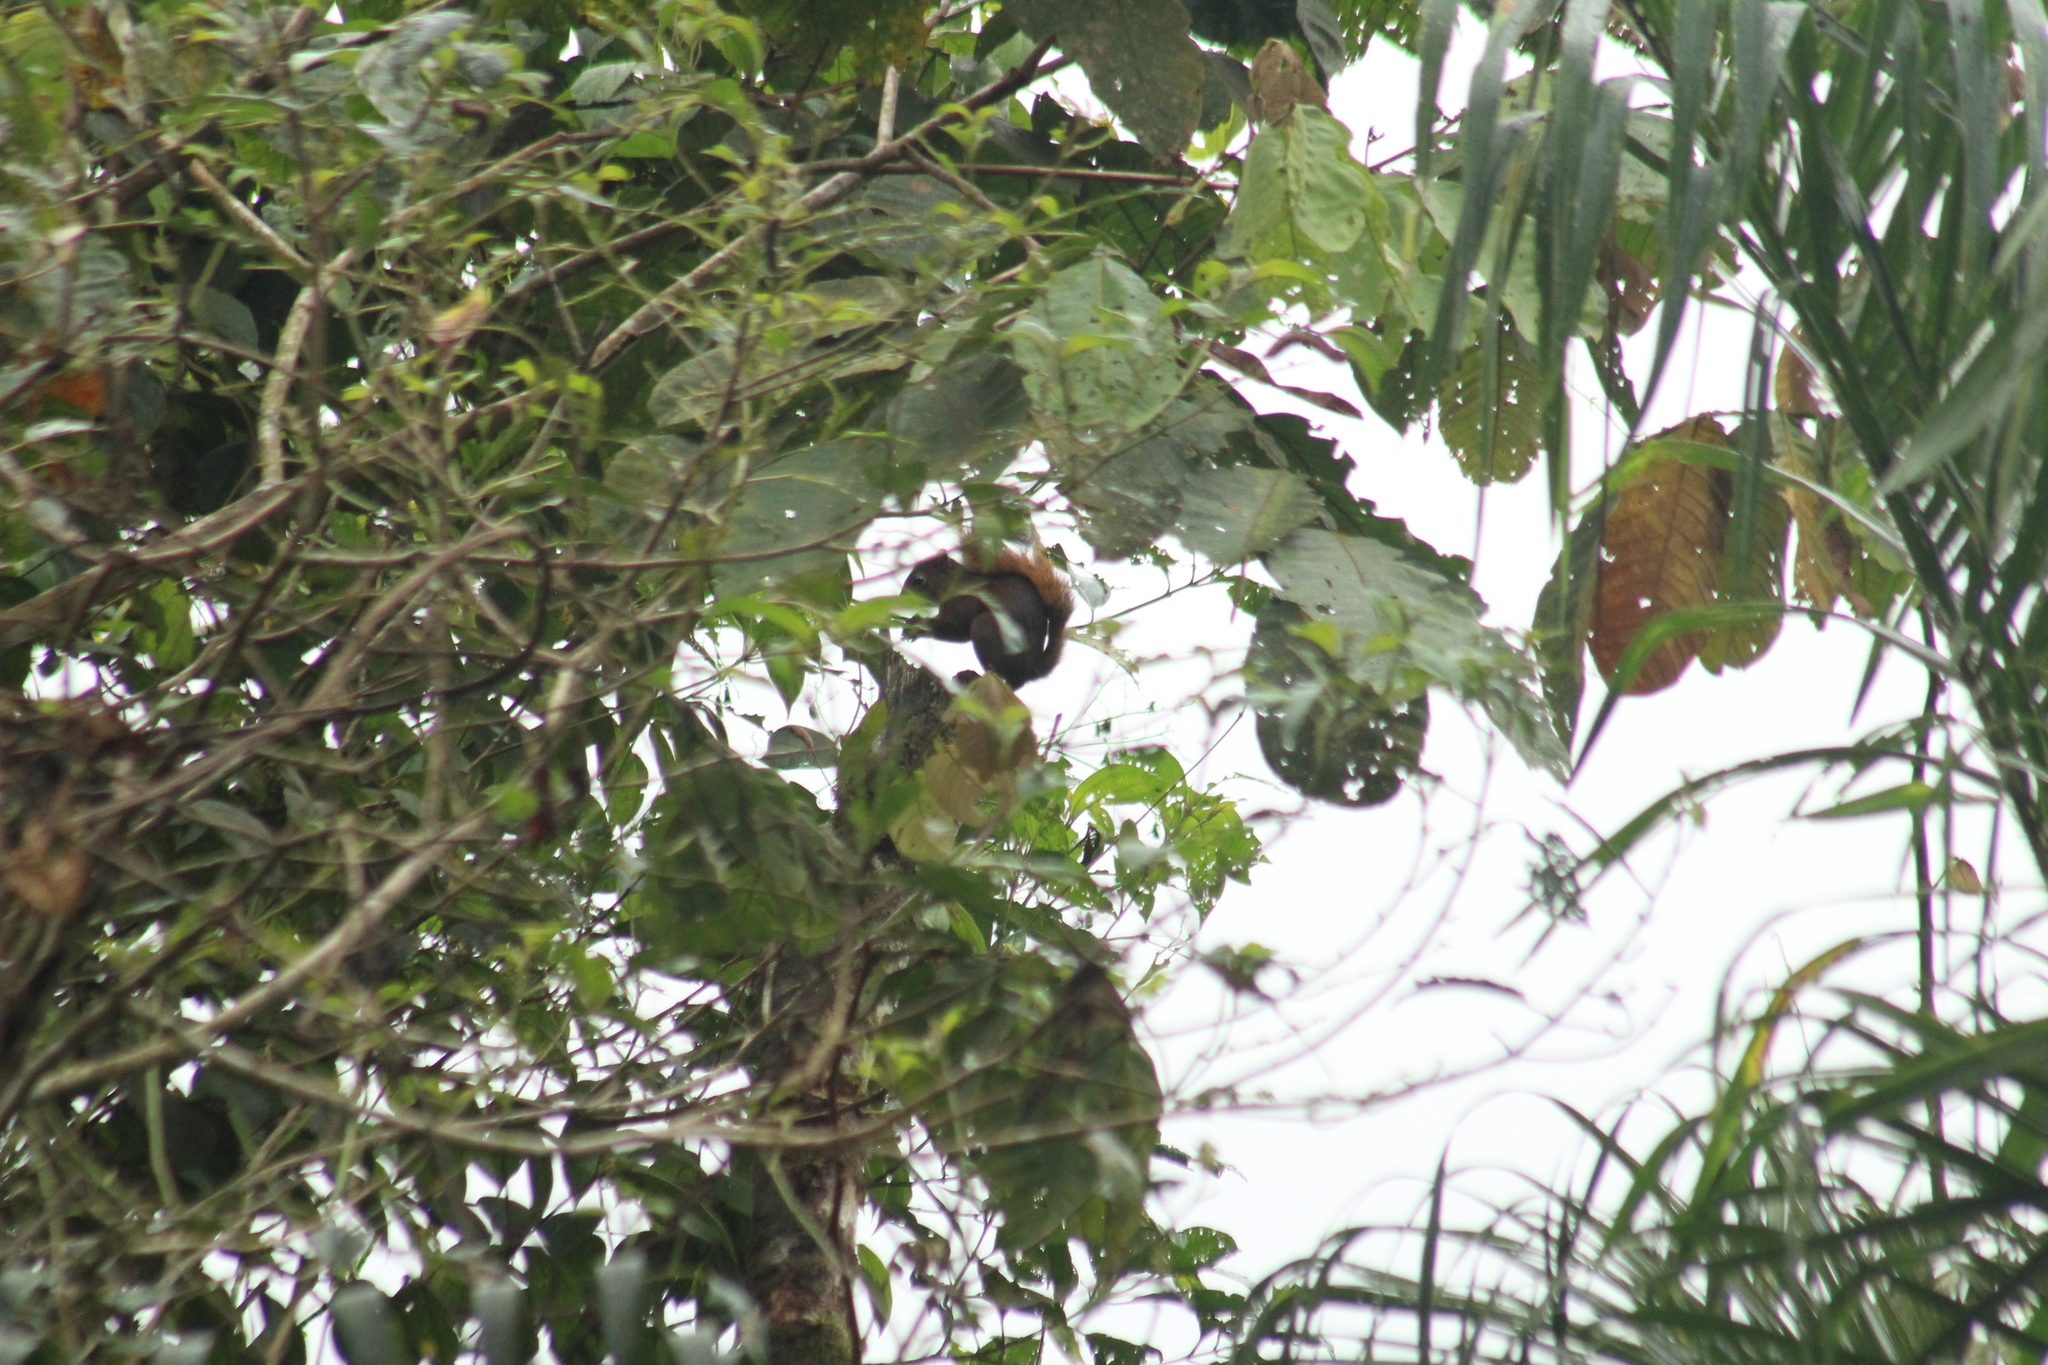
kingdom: Animalia
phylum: Chordata
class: Mammalia
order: Rodentia
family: Sciuridae
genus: Sciurus
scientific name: Sciurus granatensis
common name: Red-tailed squirrel
